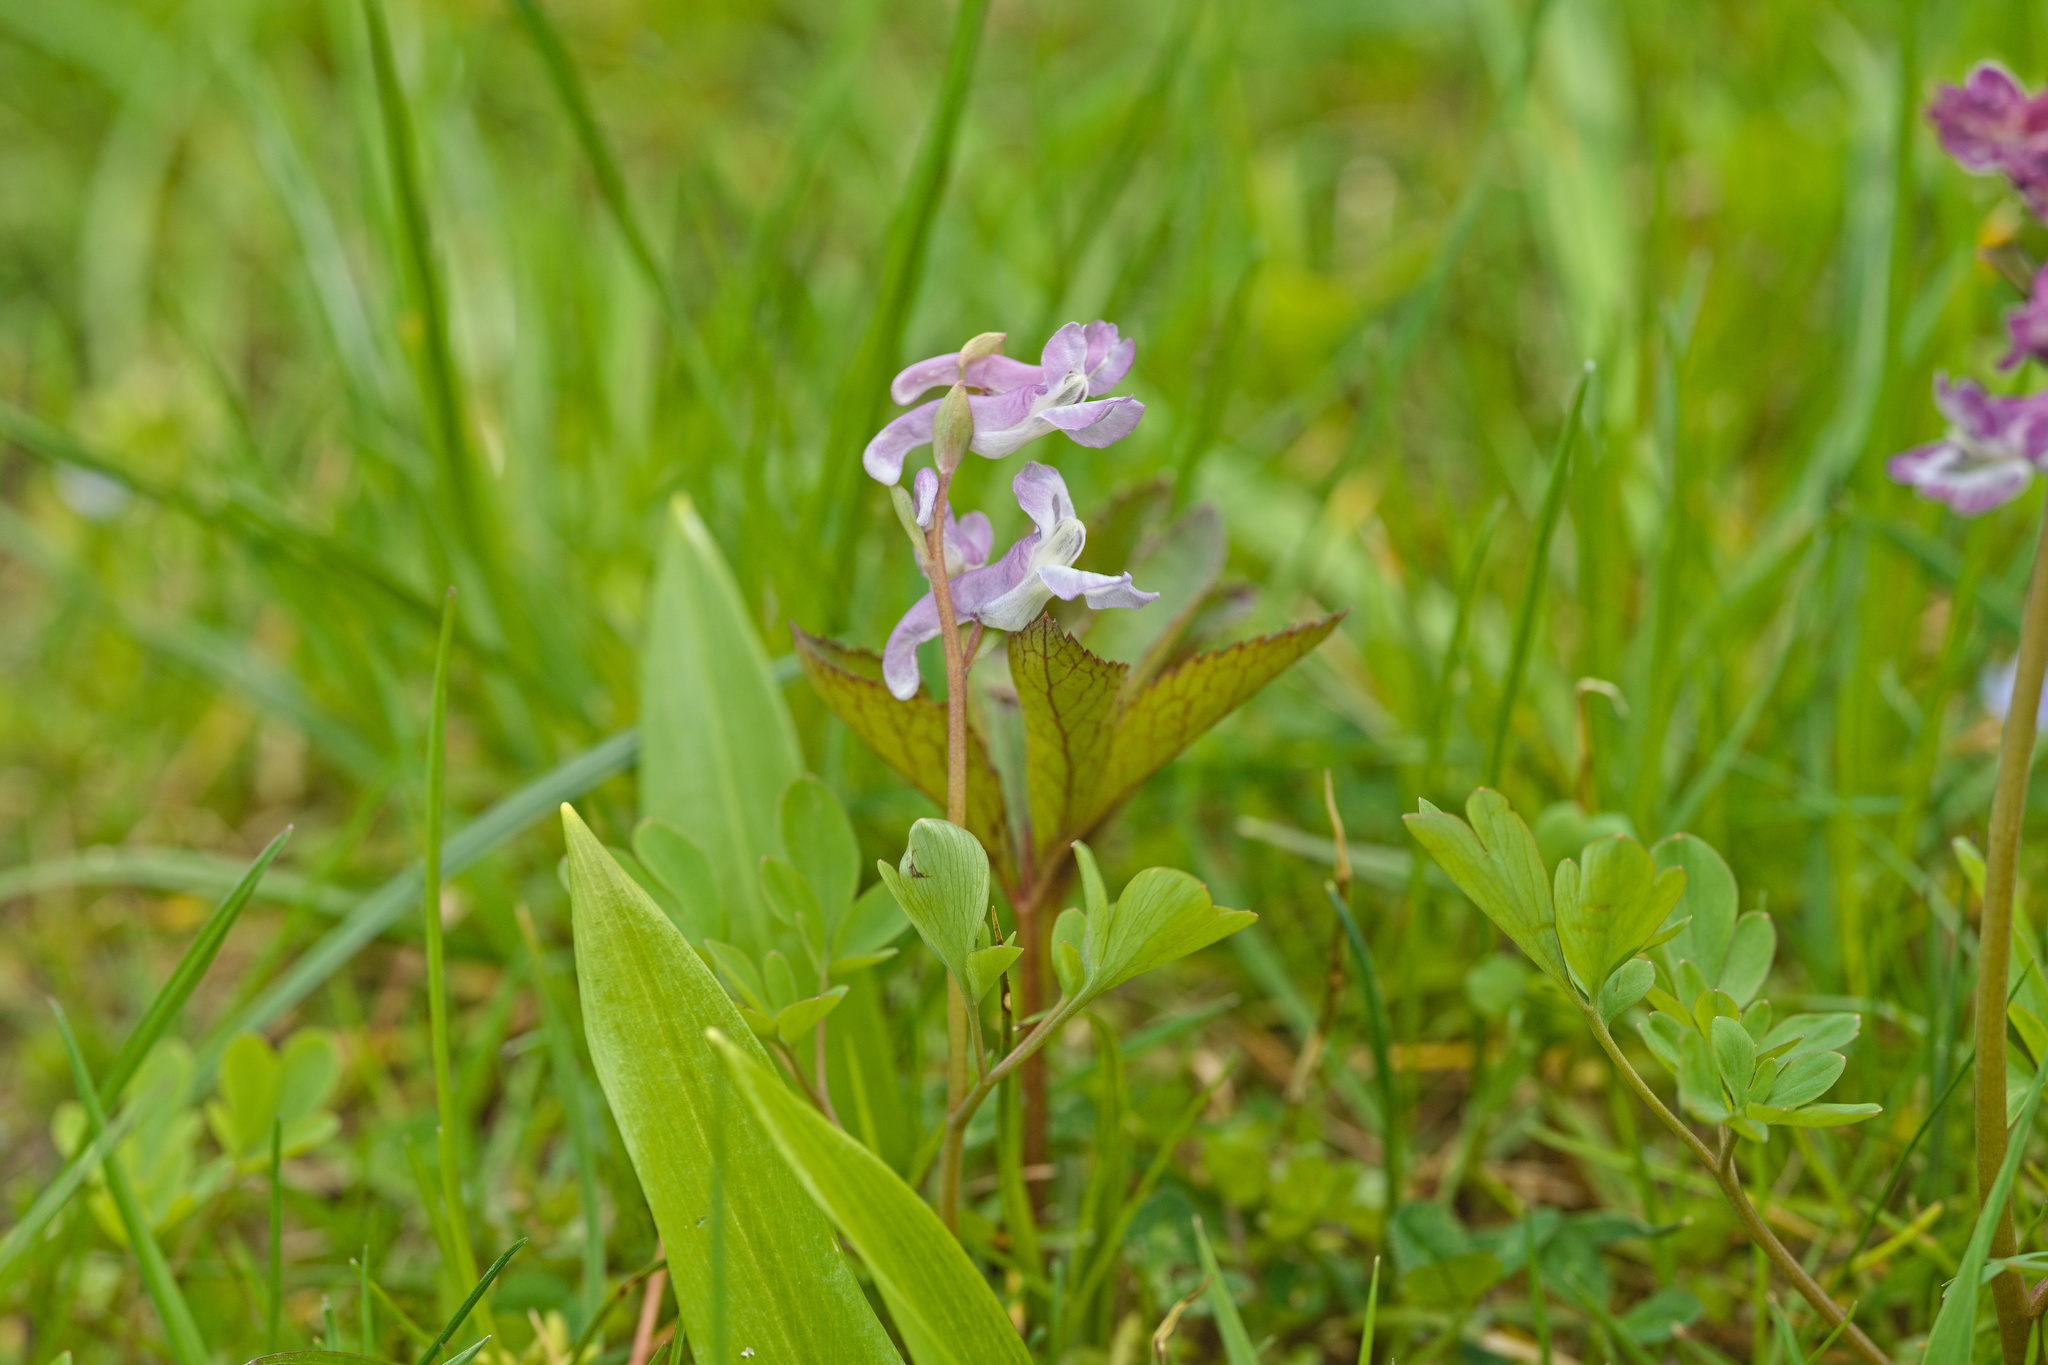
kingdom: Plantae
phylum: Tracheophyta
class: Magnoliopsida
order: Ranunculales
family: Papaveraceae
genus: Corydalis
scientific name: Corydalis cava
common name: Hollowroot
